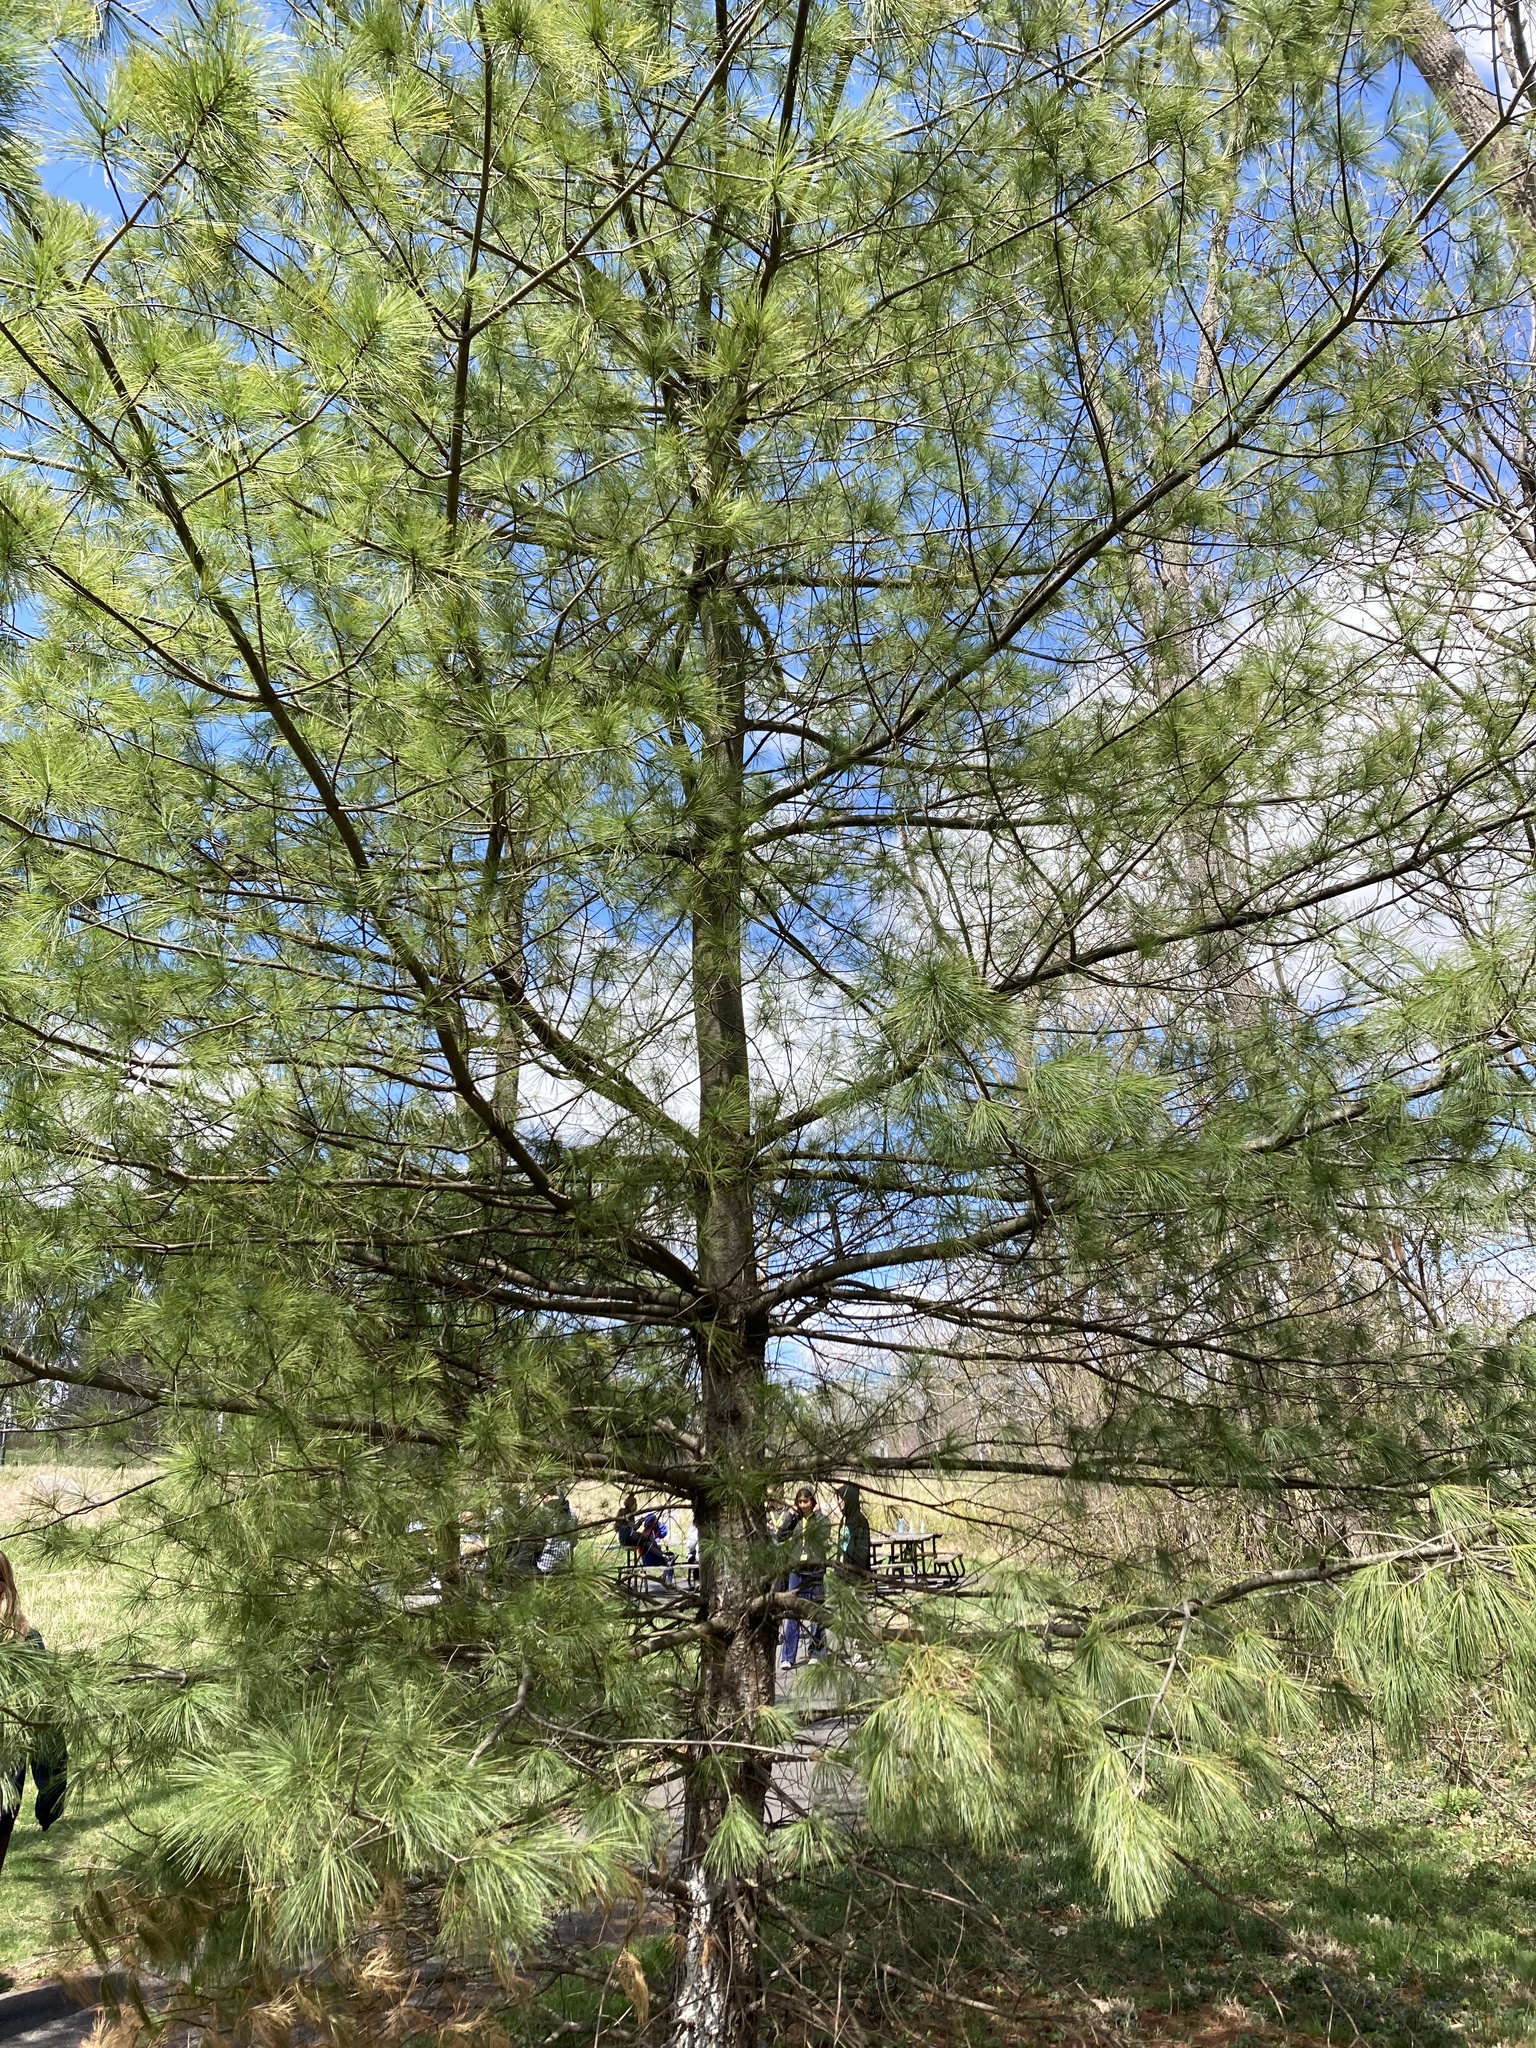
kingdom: Plantae
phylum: Tracheophyta
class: Pinopsida
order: Pinales
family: Pinaceae
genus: Pinus
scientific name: Pinus strobus
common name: Weymouth pine
